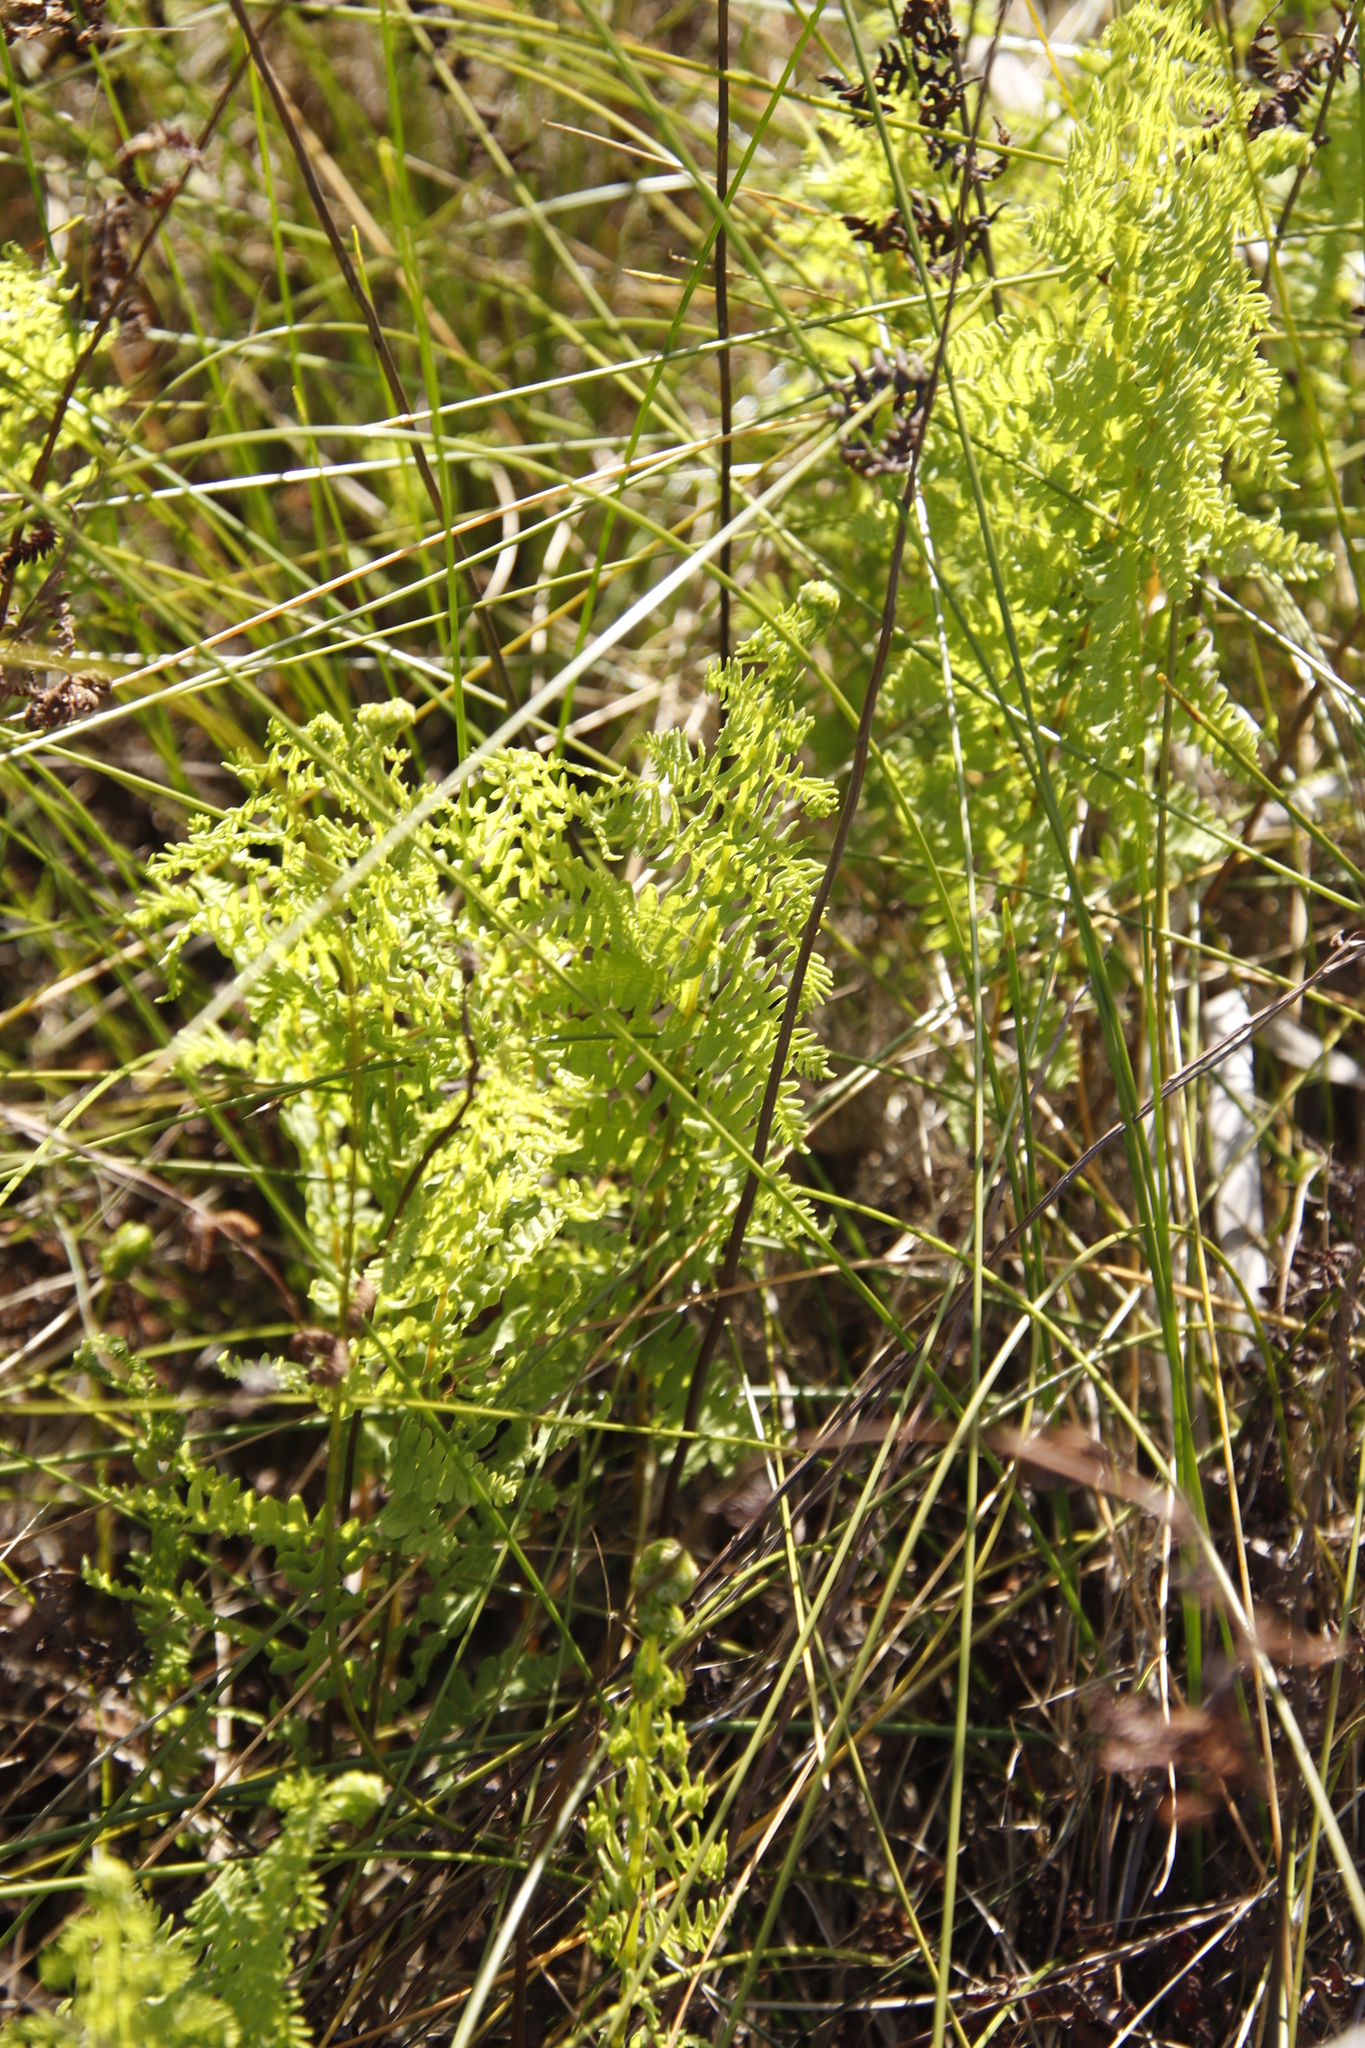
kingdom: Plantae
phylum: Tracheophyta
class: Polypodiopsida
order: Polypodiales
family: Thelypteridaceae
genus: Thelypteris
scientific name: Thelypteris confluens
